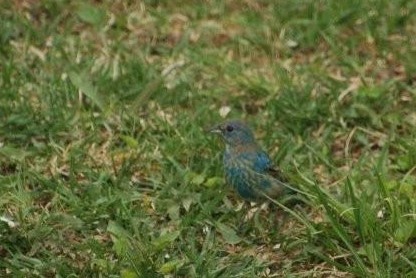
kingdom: Animalia
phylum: Chordata
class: Aves
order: Passeriformes
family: Cardinalidae
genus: Passerina
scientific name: Passerina cyanea
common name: Indigo bunting
